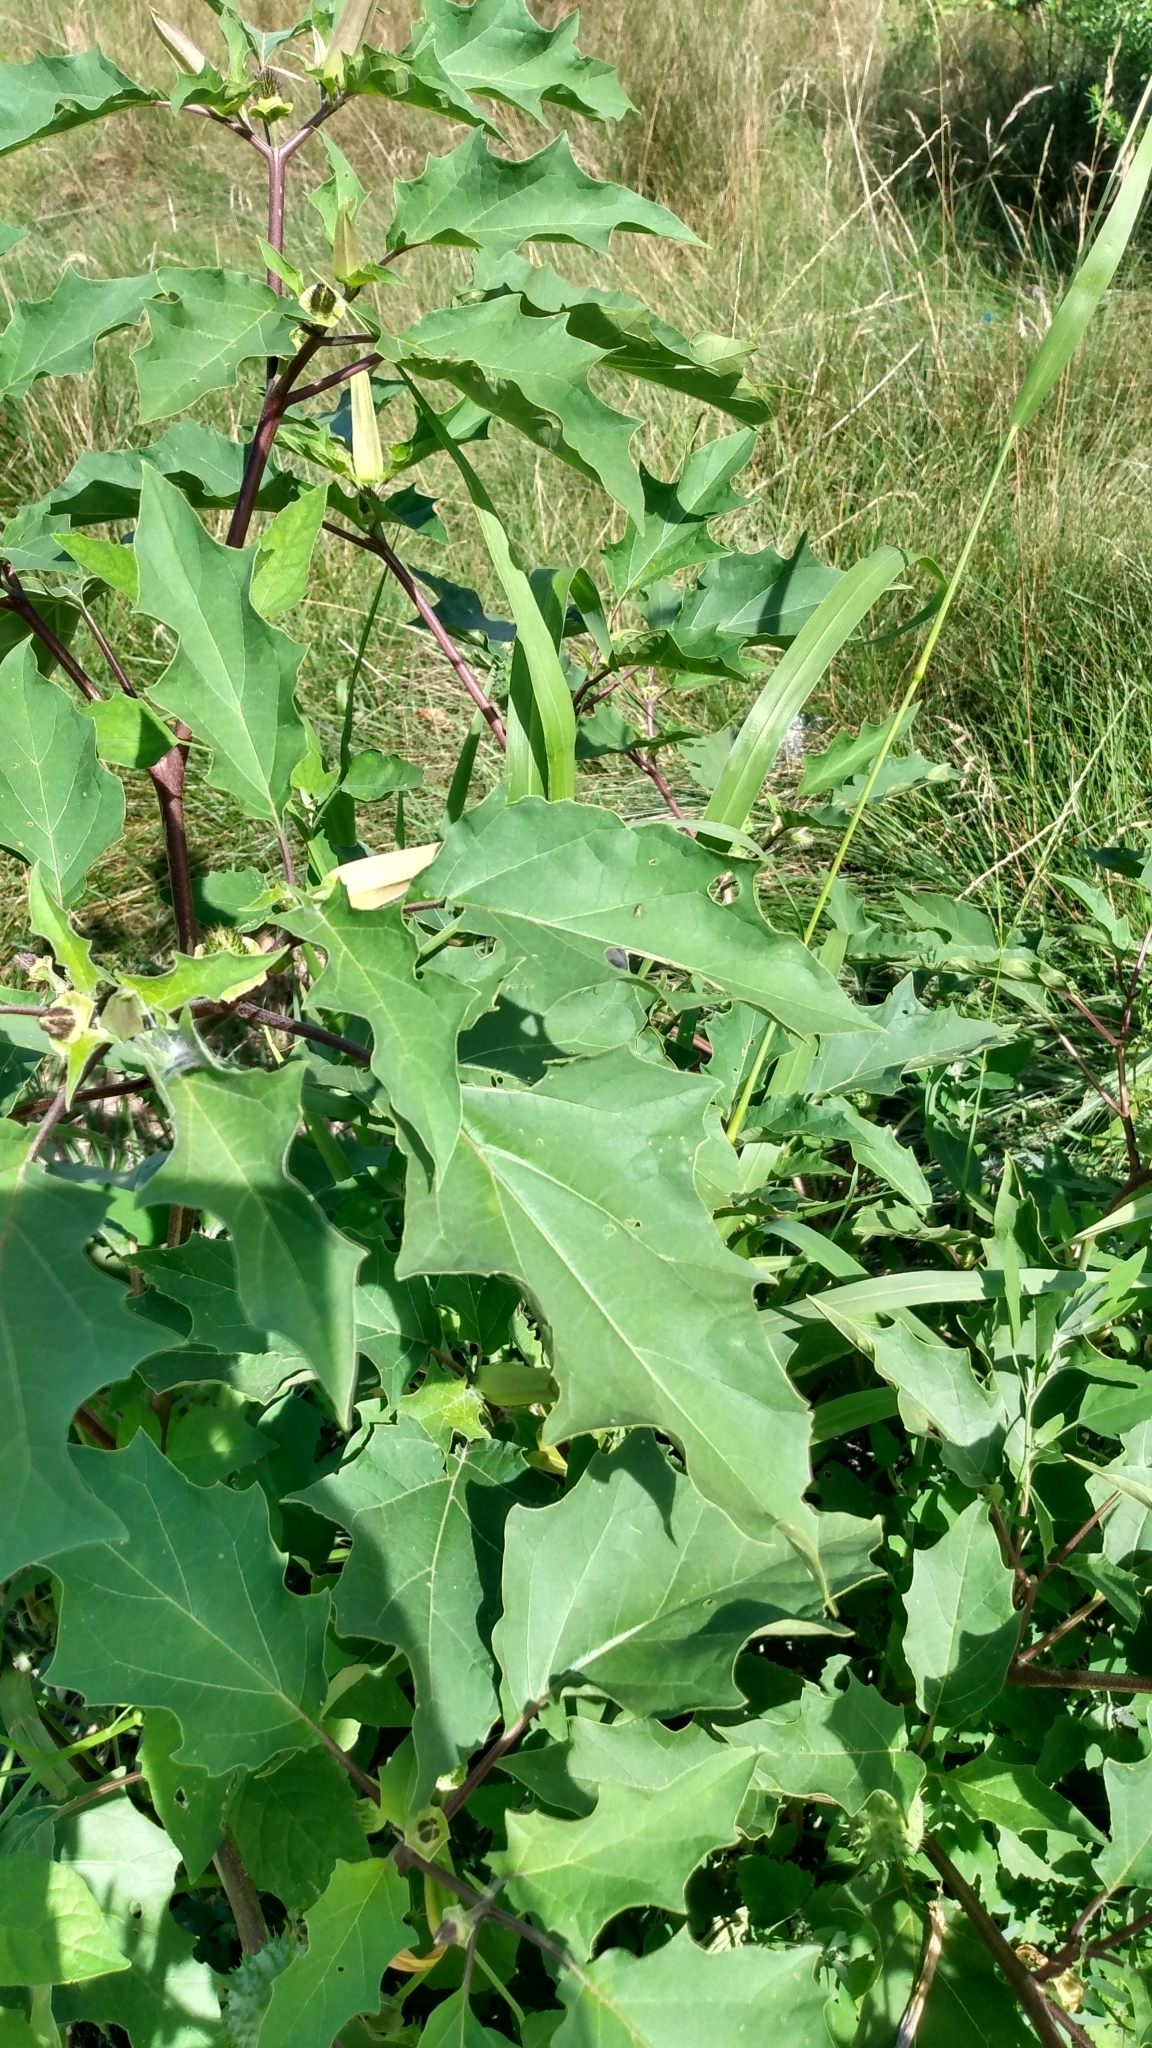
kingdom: Plantae
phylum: Tracheophyta
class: Magnoliopsida
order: Solanales
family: Solanaceae
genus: Datura
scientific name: Datura stramonium
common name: Thorn-apple
